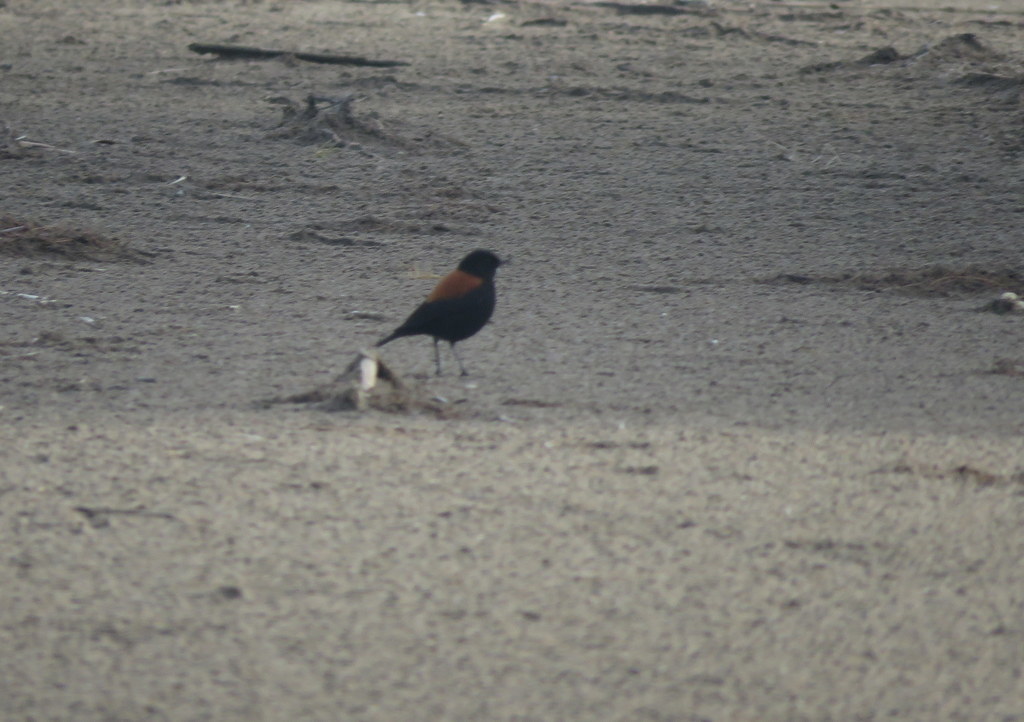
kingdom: Animalia
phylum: Chordata
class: Aves
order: Passeriformes
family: Tyrannidae
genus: Lessonia
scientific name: Lessonia rufa
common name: Austral negrito
